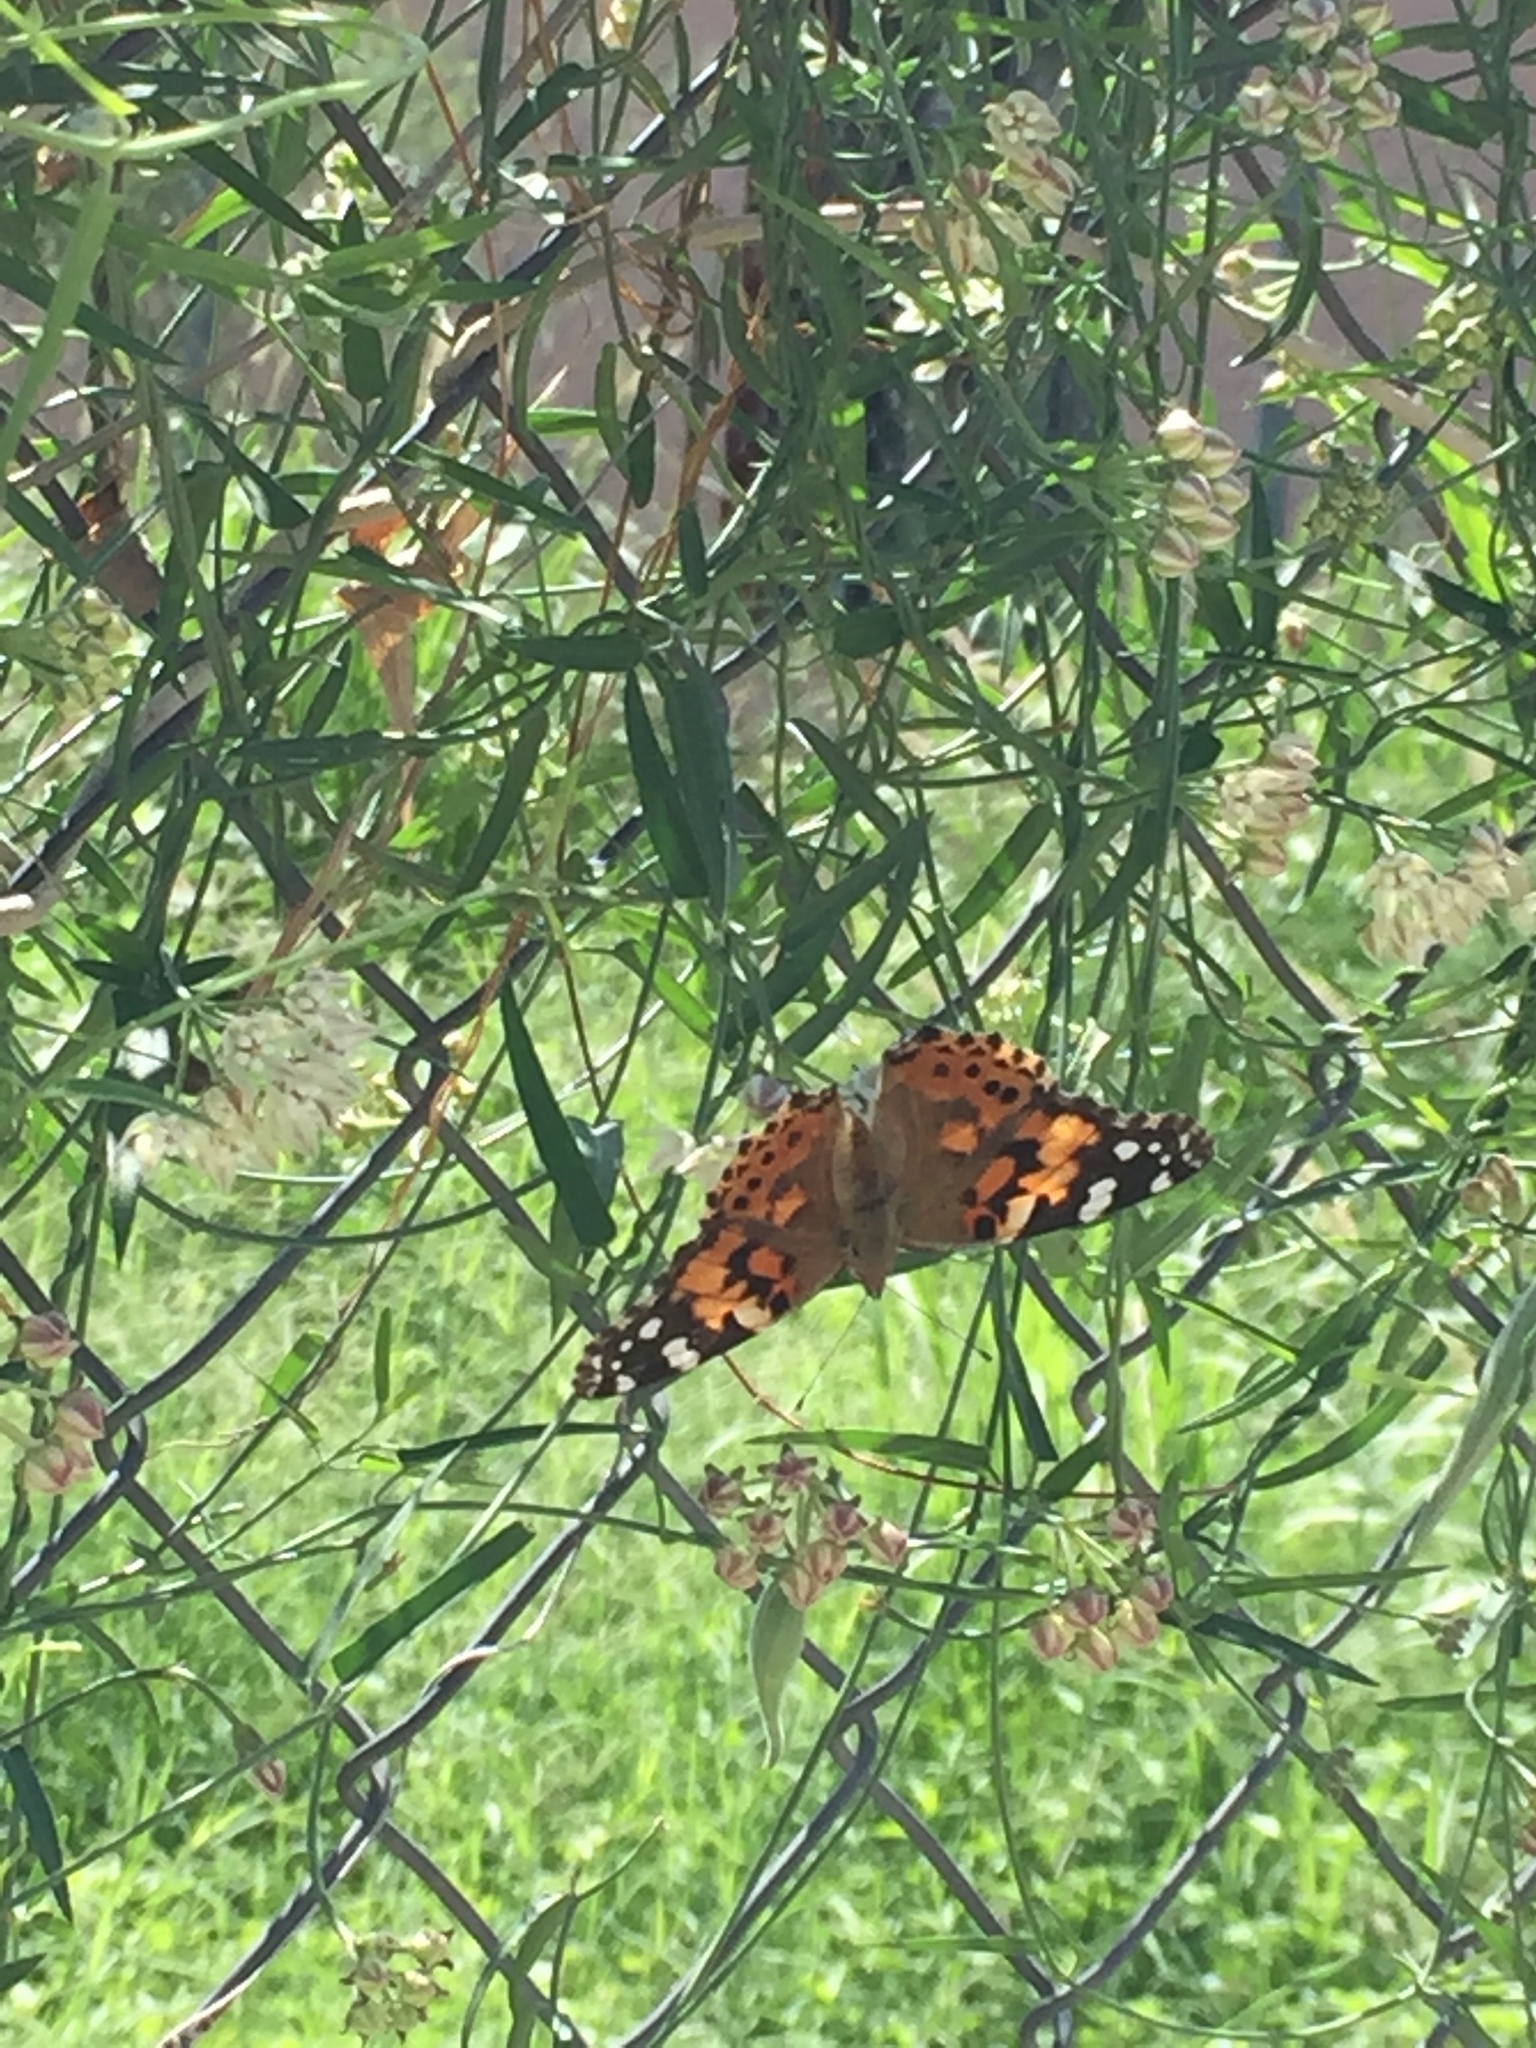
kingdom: Animalia
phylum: Arthropoda
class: Insecta
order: Lepidoptera
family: Nymphalidae
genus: Vanessa
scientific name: Vanessa cardui
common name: Painted lady
